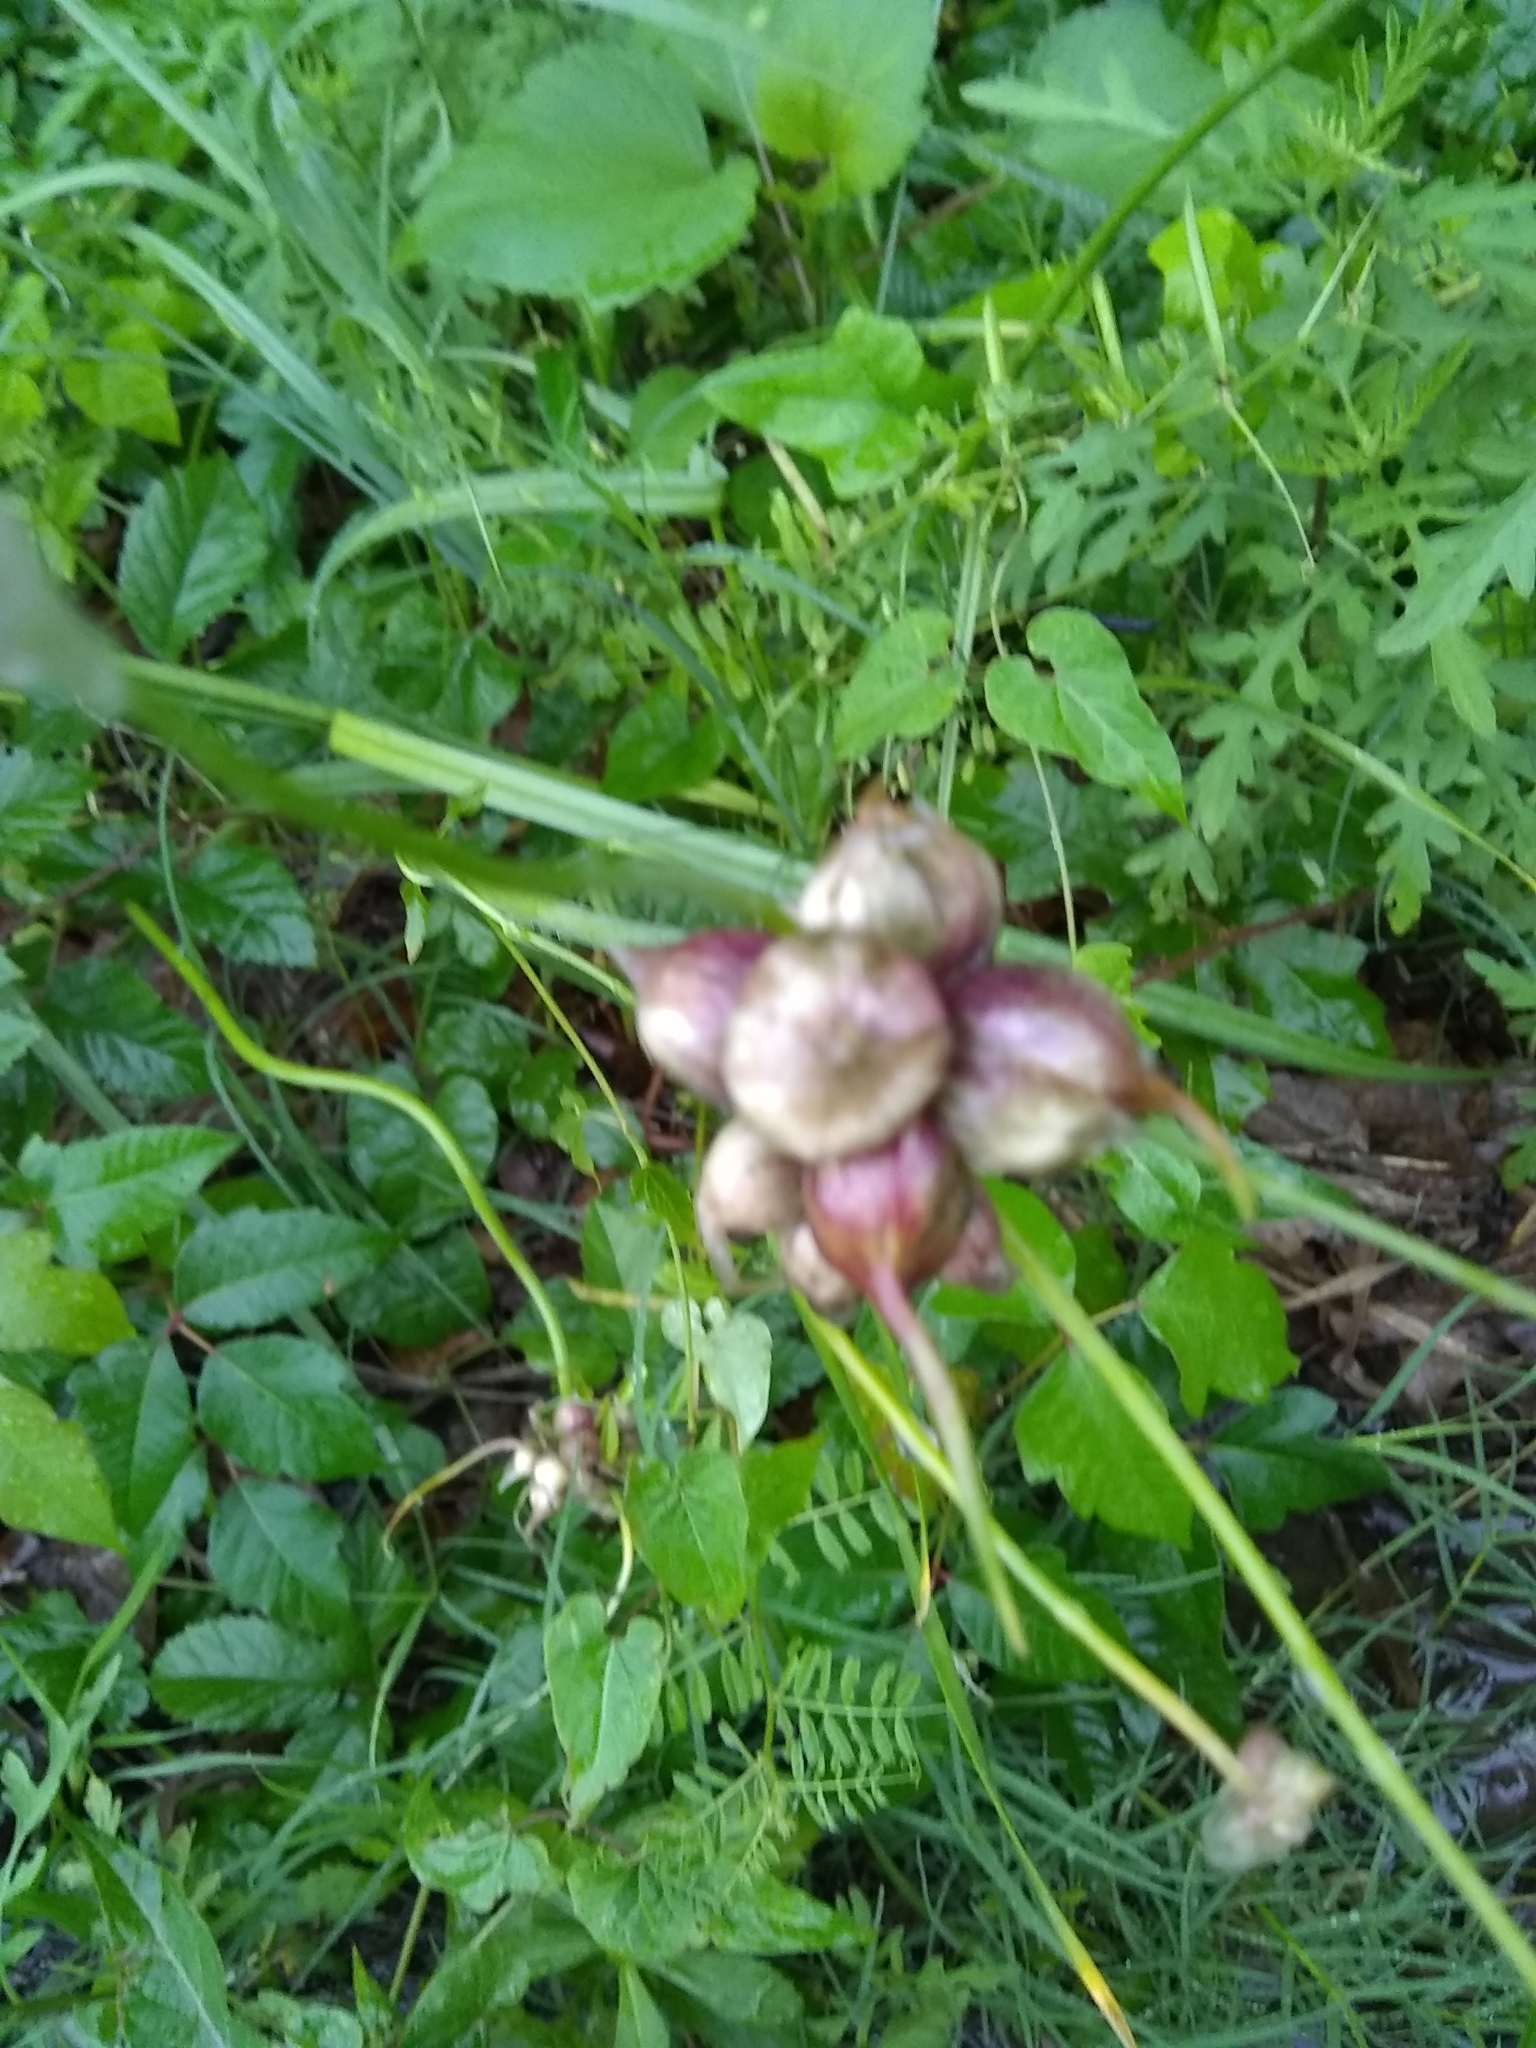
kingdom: Plantae
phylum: Tracheophyta
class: Liliopsida
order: Asparagales
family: Amaryllidaceae
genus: Allium
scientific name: Allium canadense
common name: Meadow garlic
